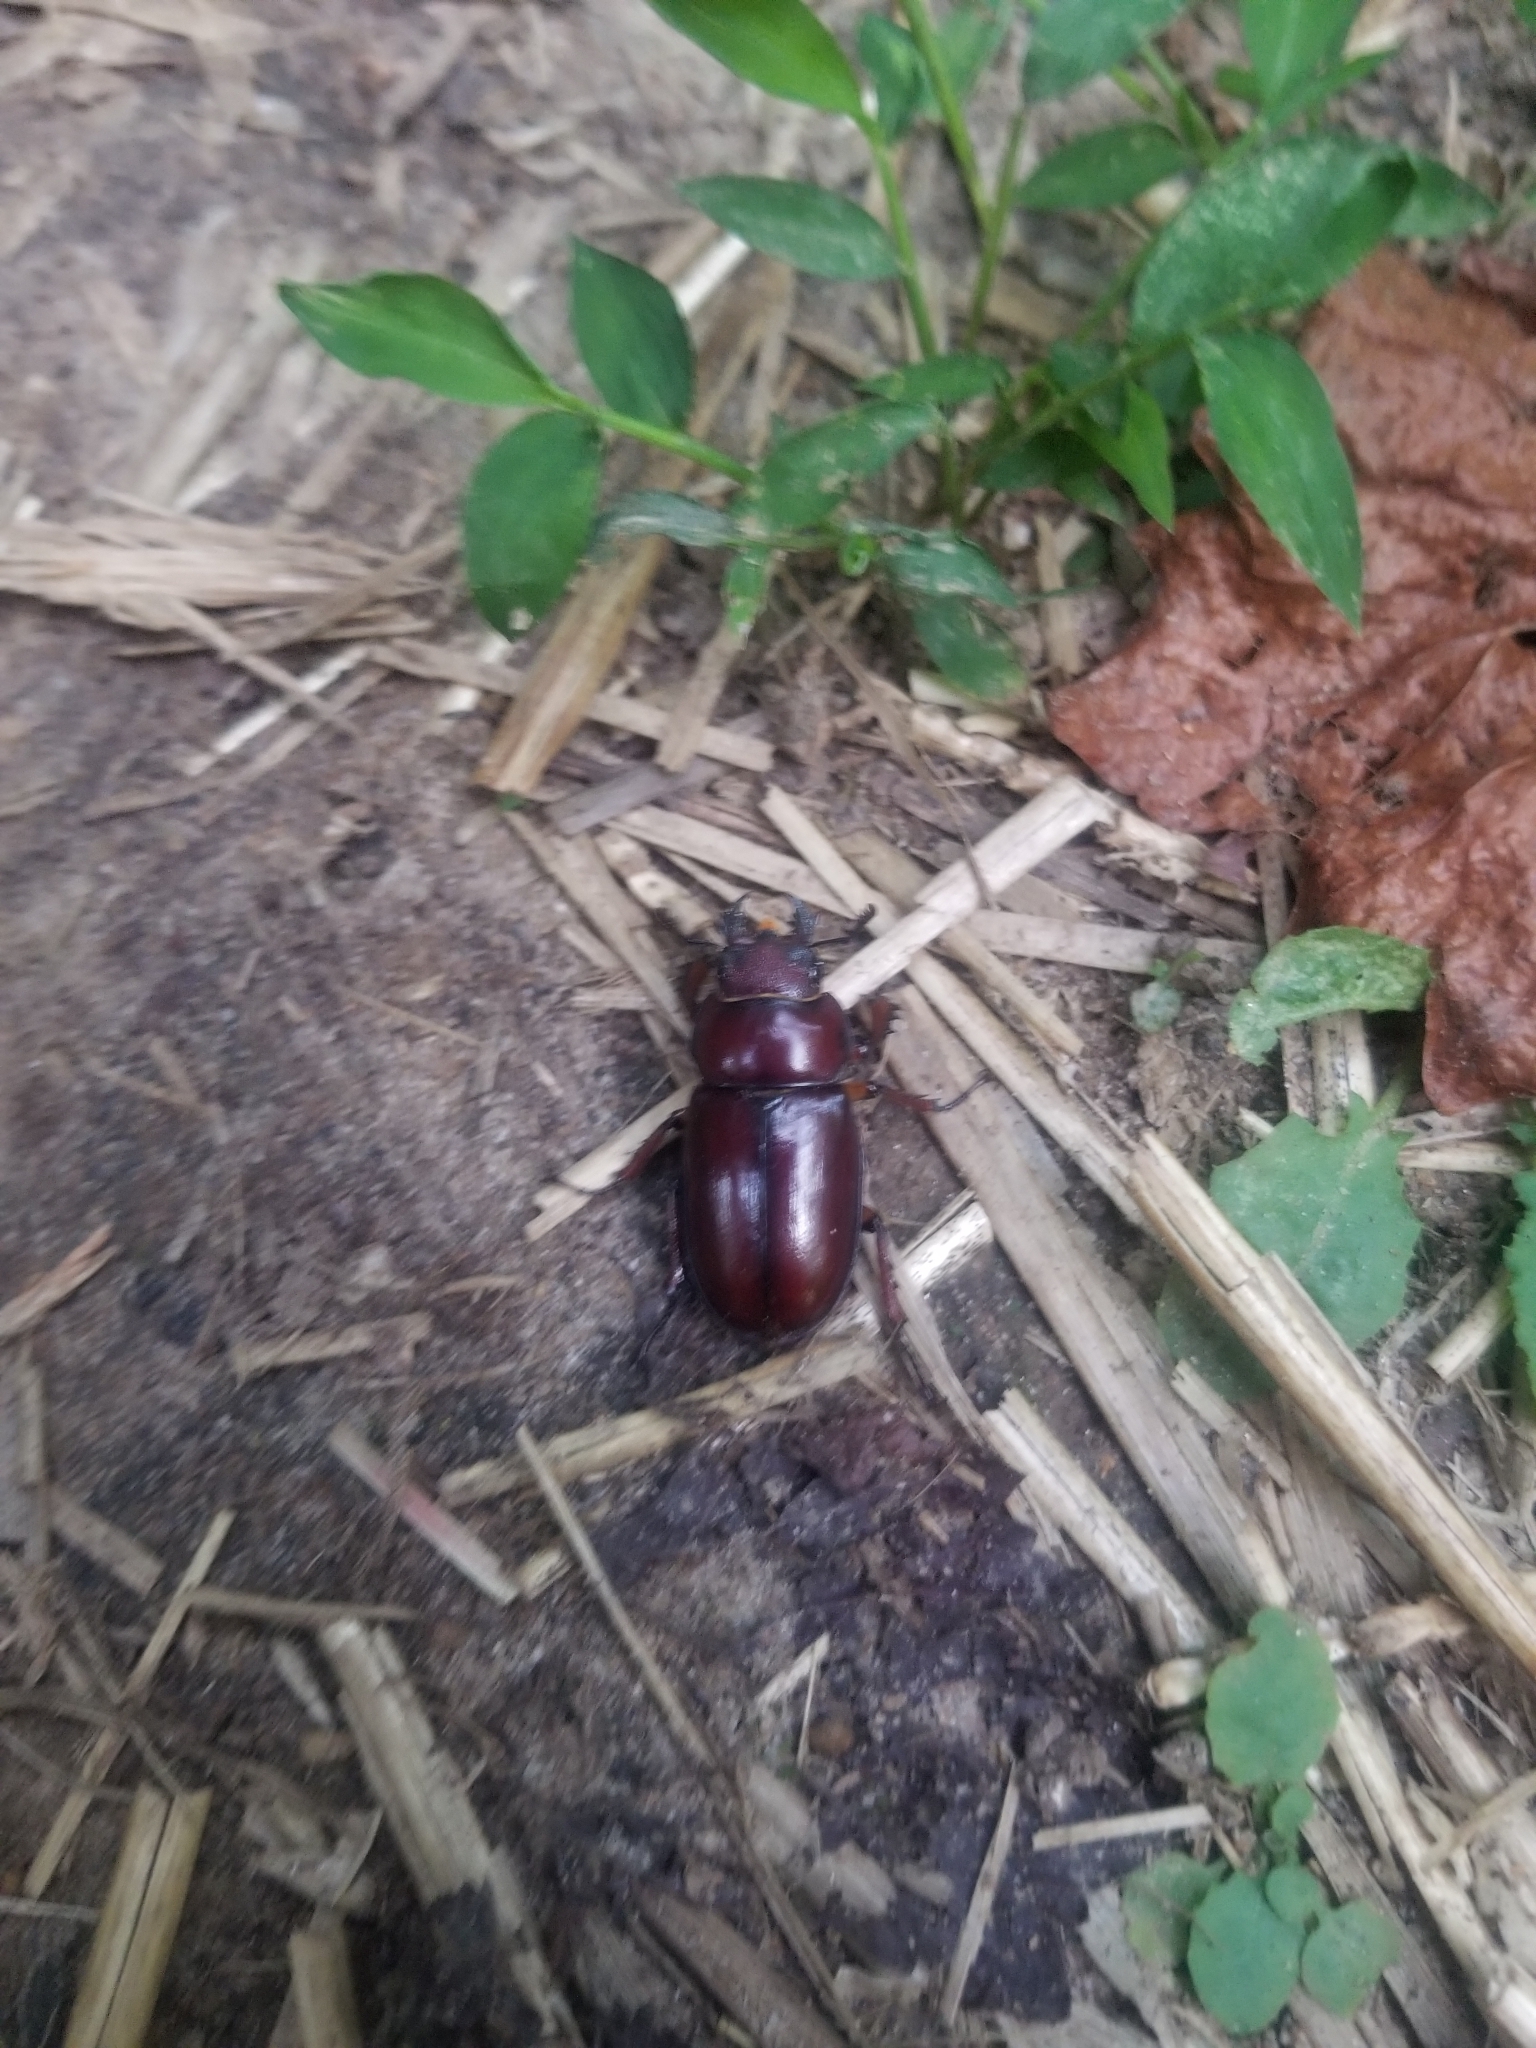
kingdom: Animalia
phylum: Arthropoda
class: Insecta
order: Coleoptera
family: Lucanidae
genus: Lucanus
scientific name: Lucanus capreolus
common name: Stag beetle
